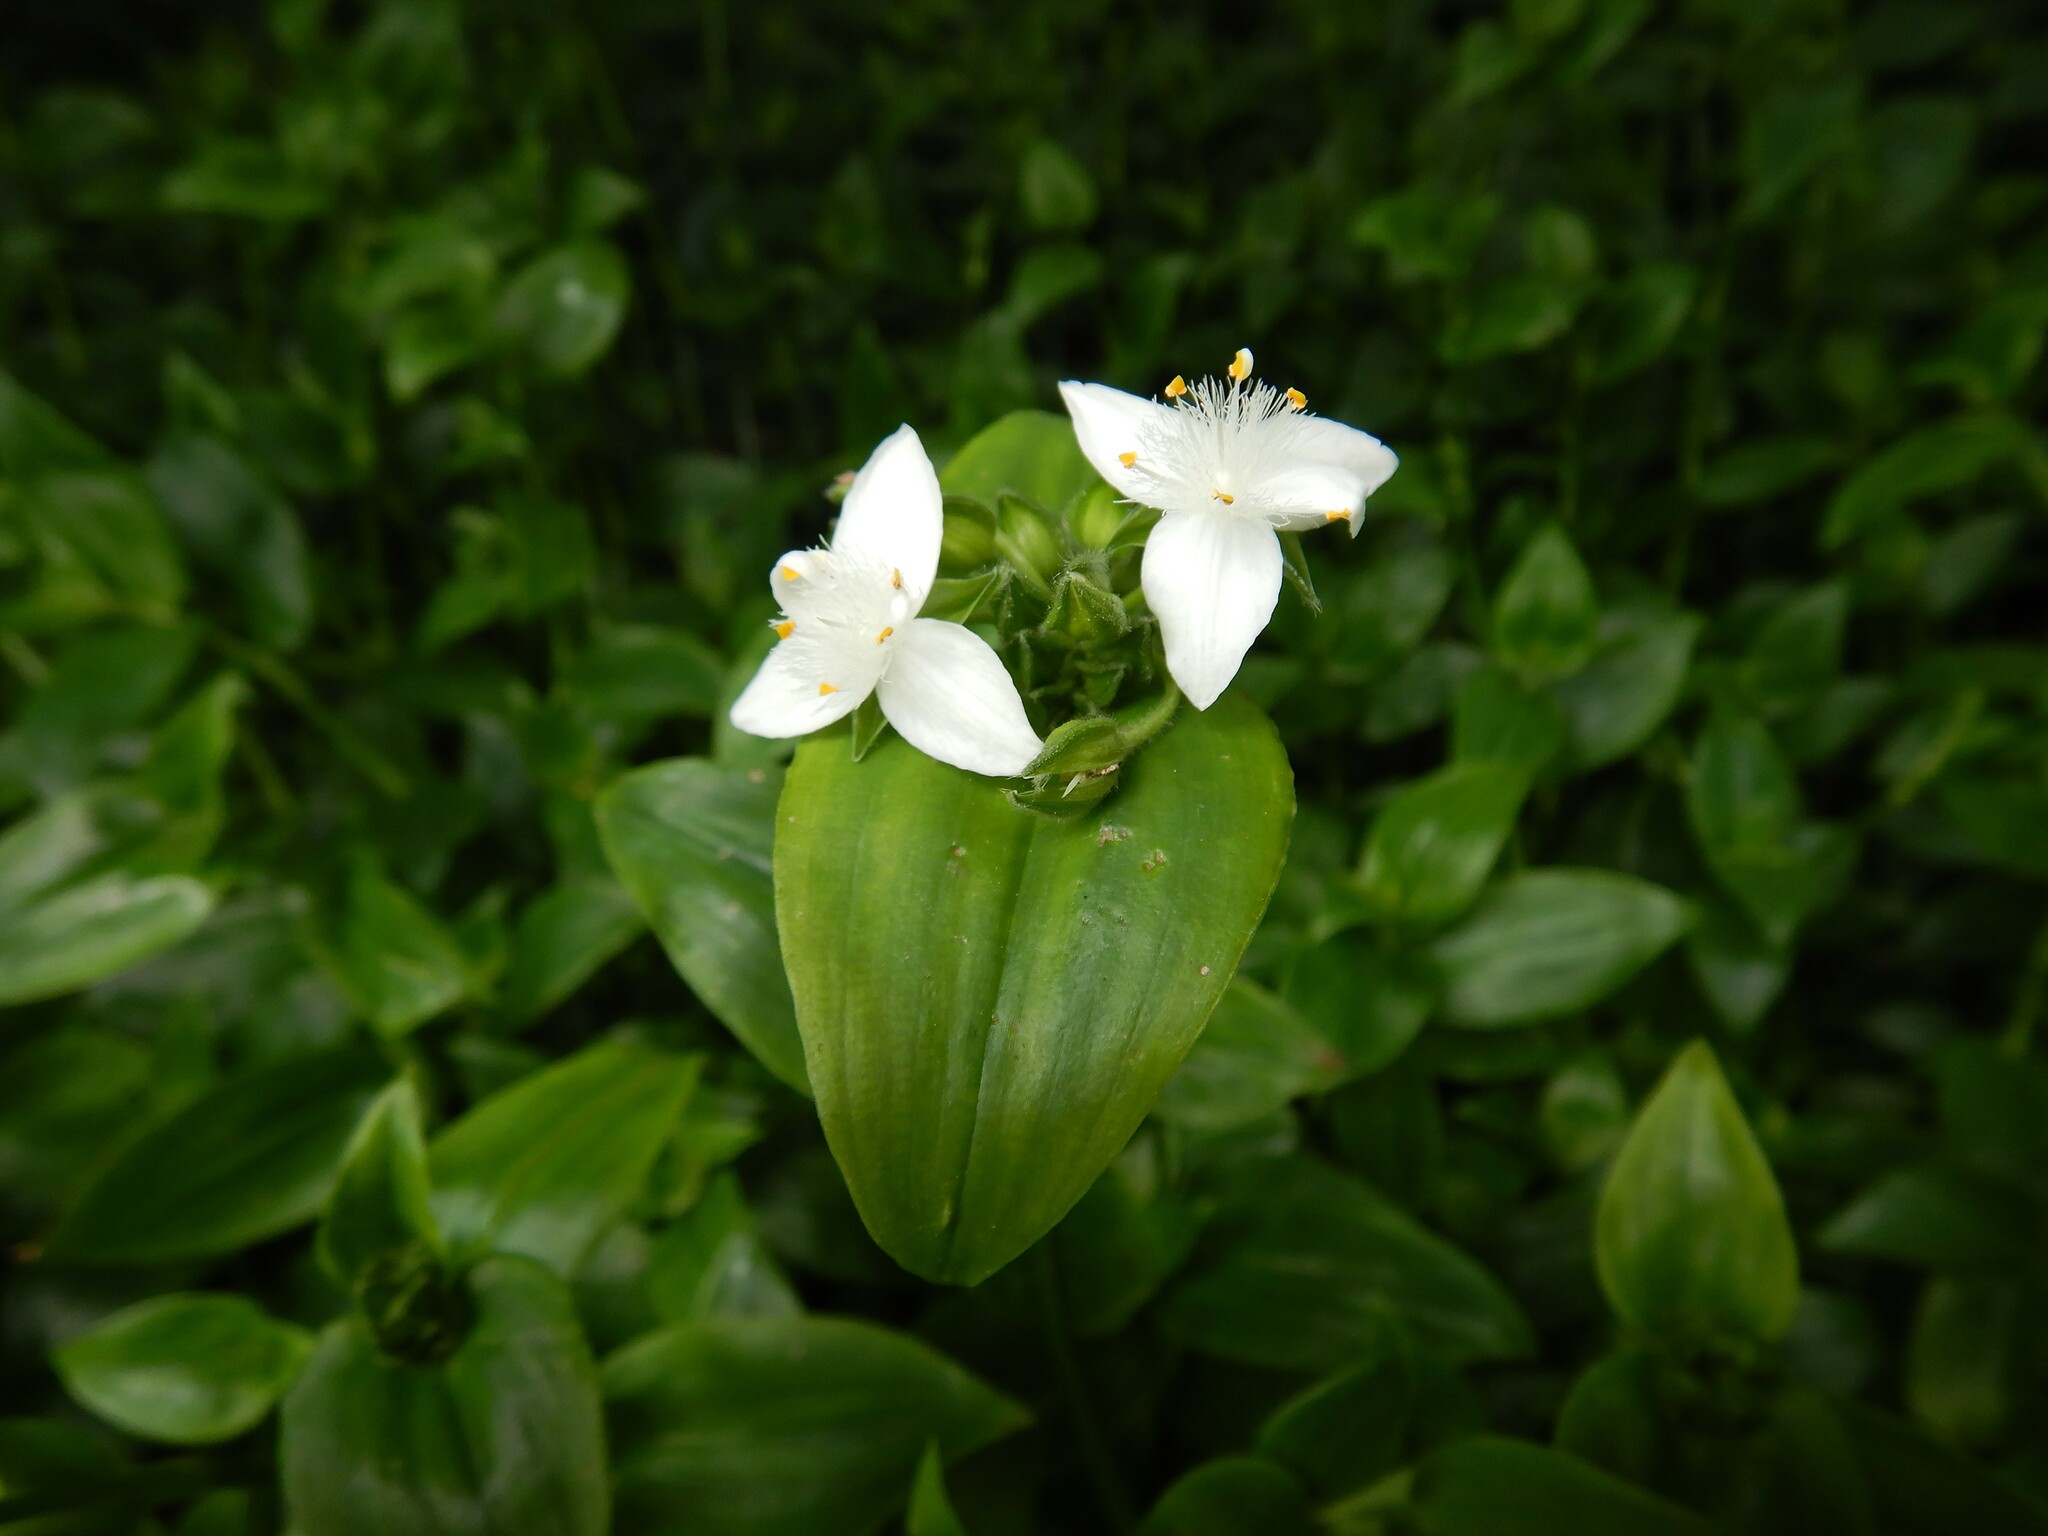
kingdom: Plantae
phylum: Tracheophyta
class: Liliopsida
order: Commelinales
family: Commelinaceae
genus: Tradescantia
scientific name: Tradescantia fluminensis
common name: Wandering-jew
